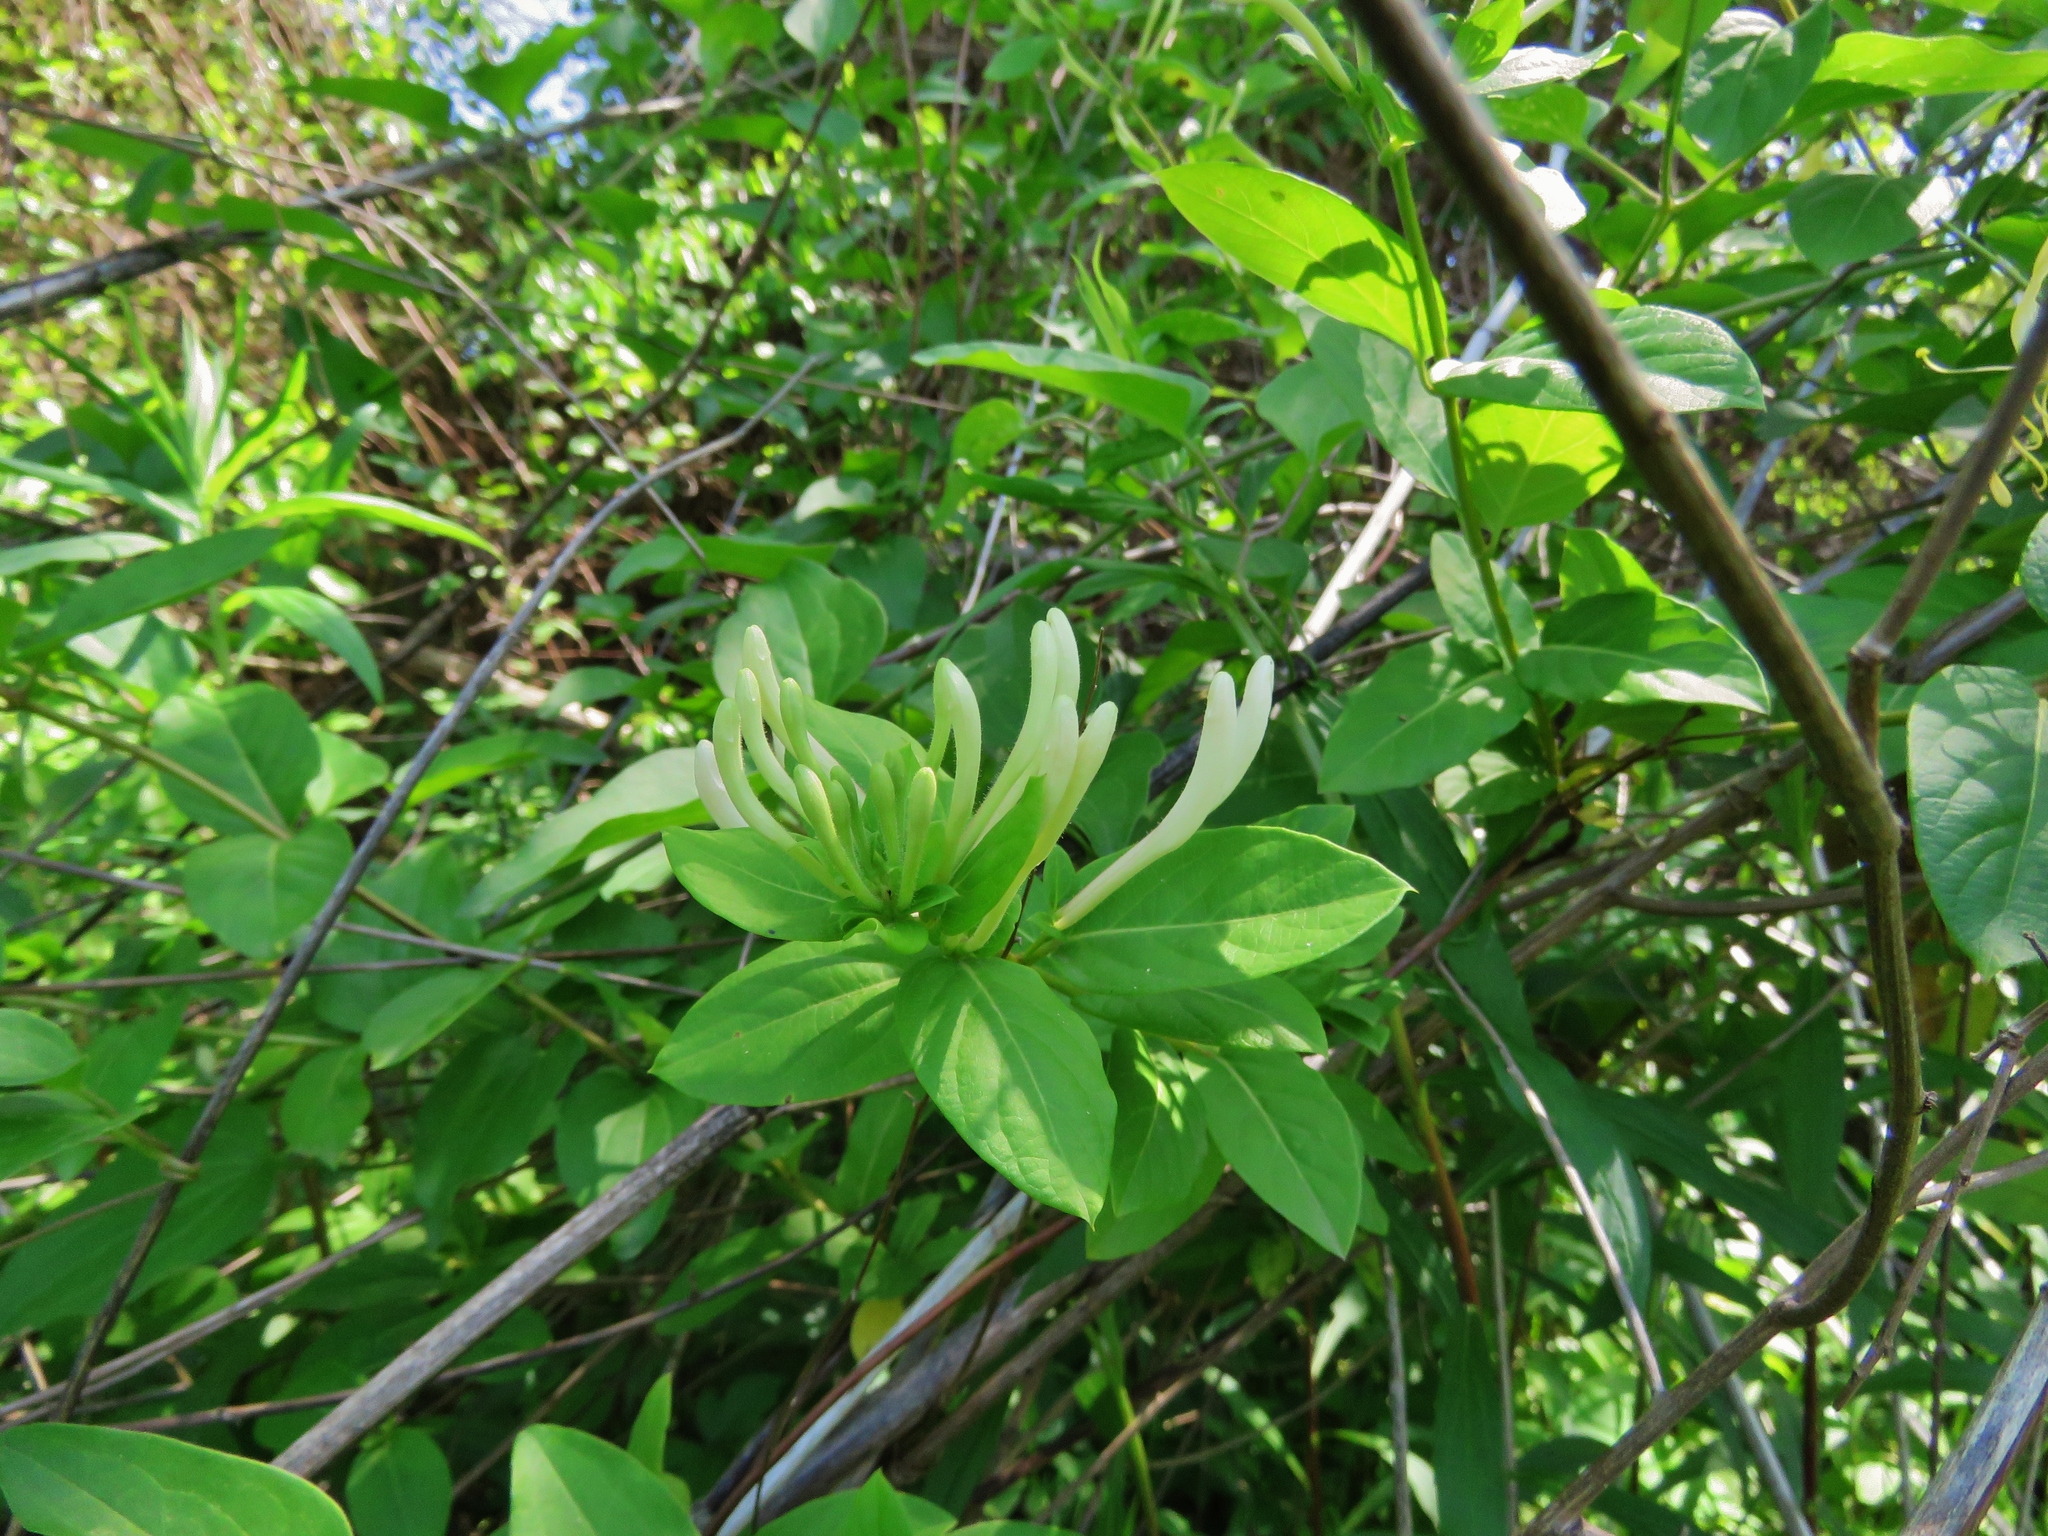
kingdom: Plantae
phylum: Tracheophyta
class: Magnoliopsida
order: Dipsacales
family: Caprifoliaceae
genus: Lonicera
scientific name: Lonicera japonica
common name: Japanese honeysuckle
